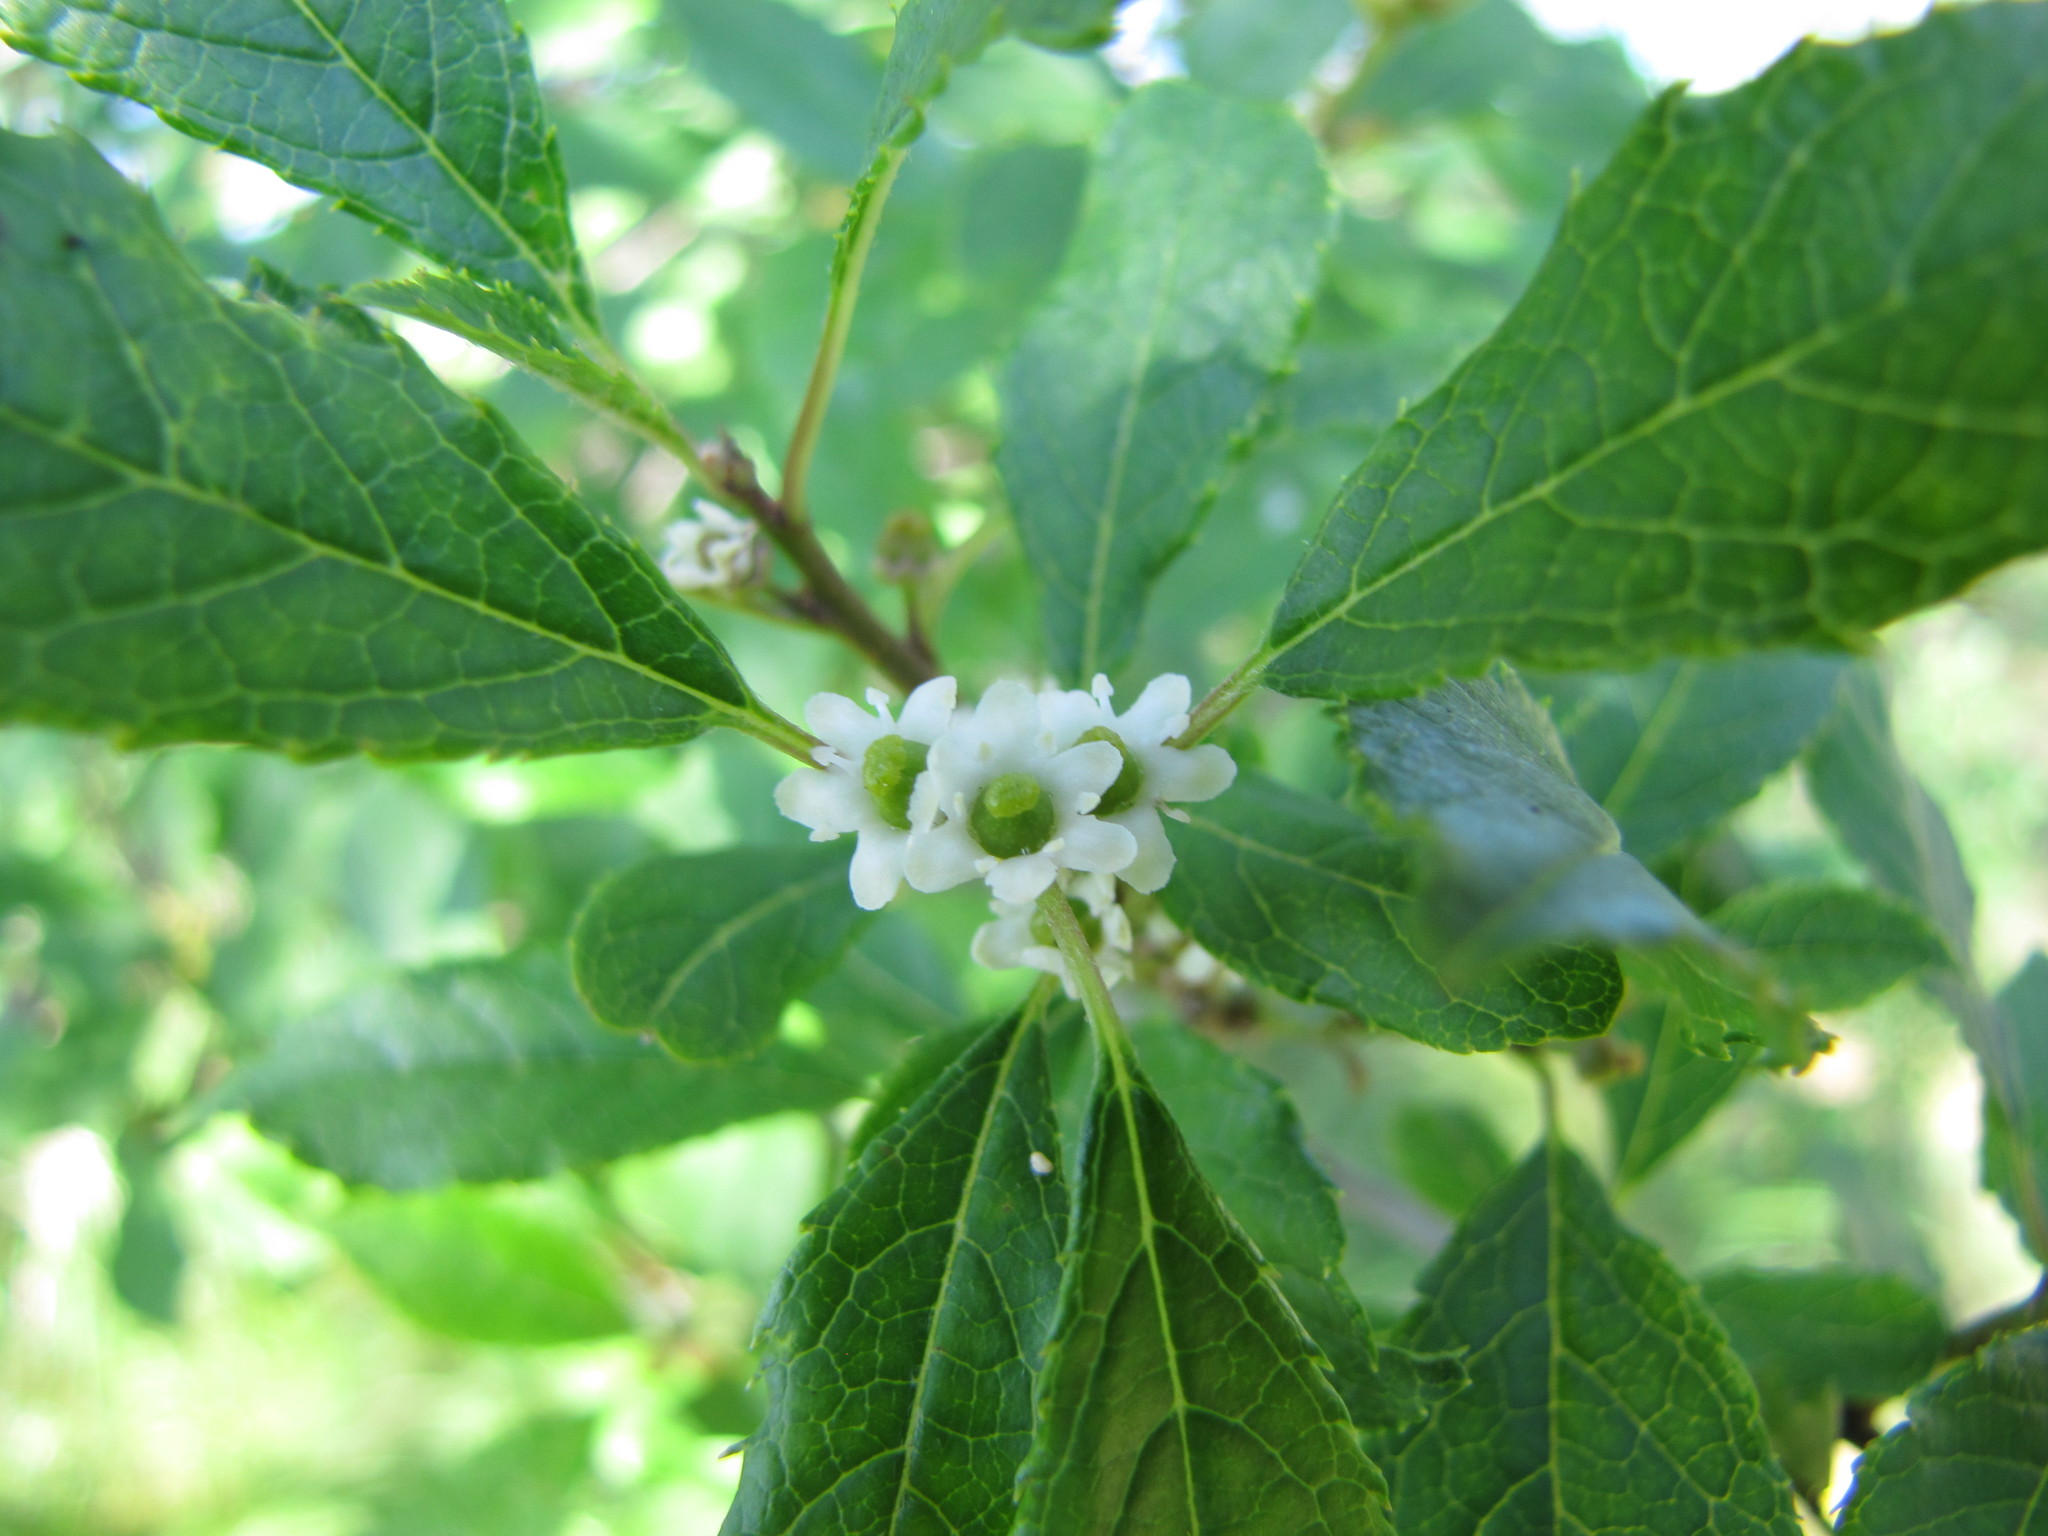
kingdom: Plantae
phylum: Tracheophyta
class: Magnoliopsida
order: Aquifoliales
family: Aquifoliaceae
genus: Ilex
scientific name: Ilex verticillata
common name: Virginia winterberry
